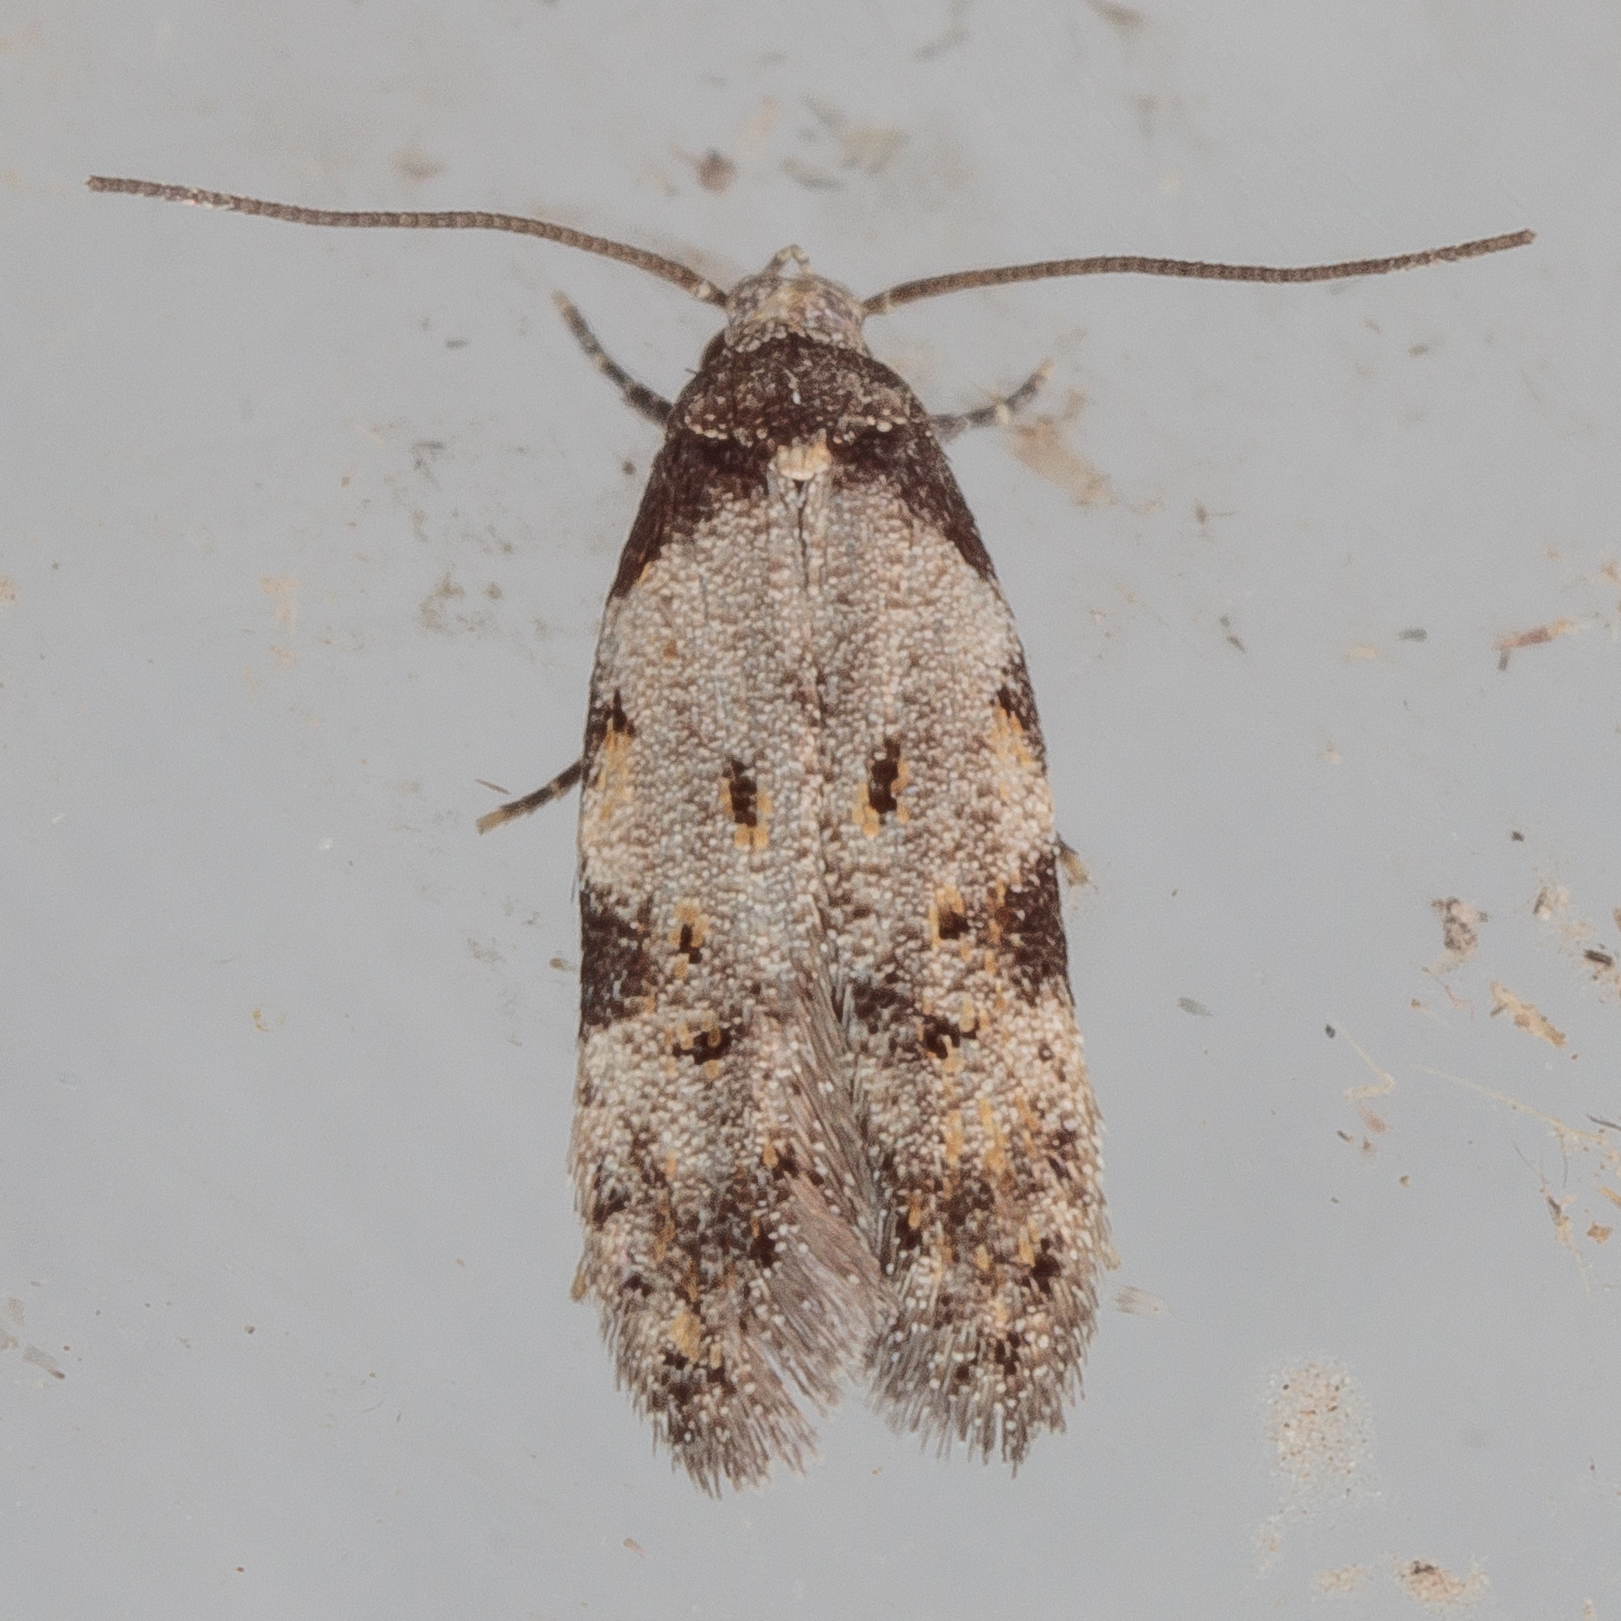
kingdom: Animalia
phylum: Arthropoda
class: Insecta
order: Lepidoptera
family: Autostichidae
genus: Taygete
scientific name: Taygete attributella
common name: Triangle-marked twirler moth
